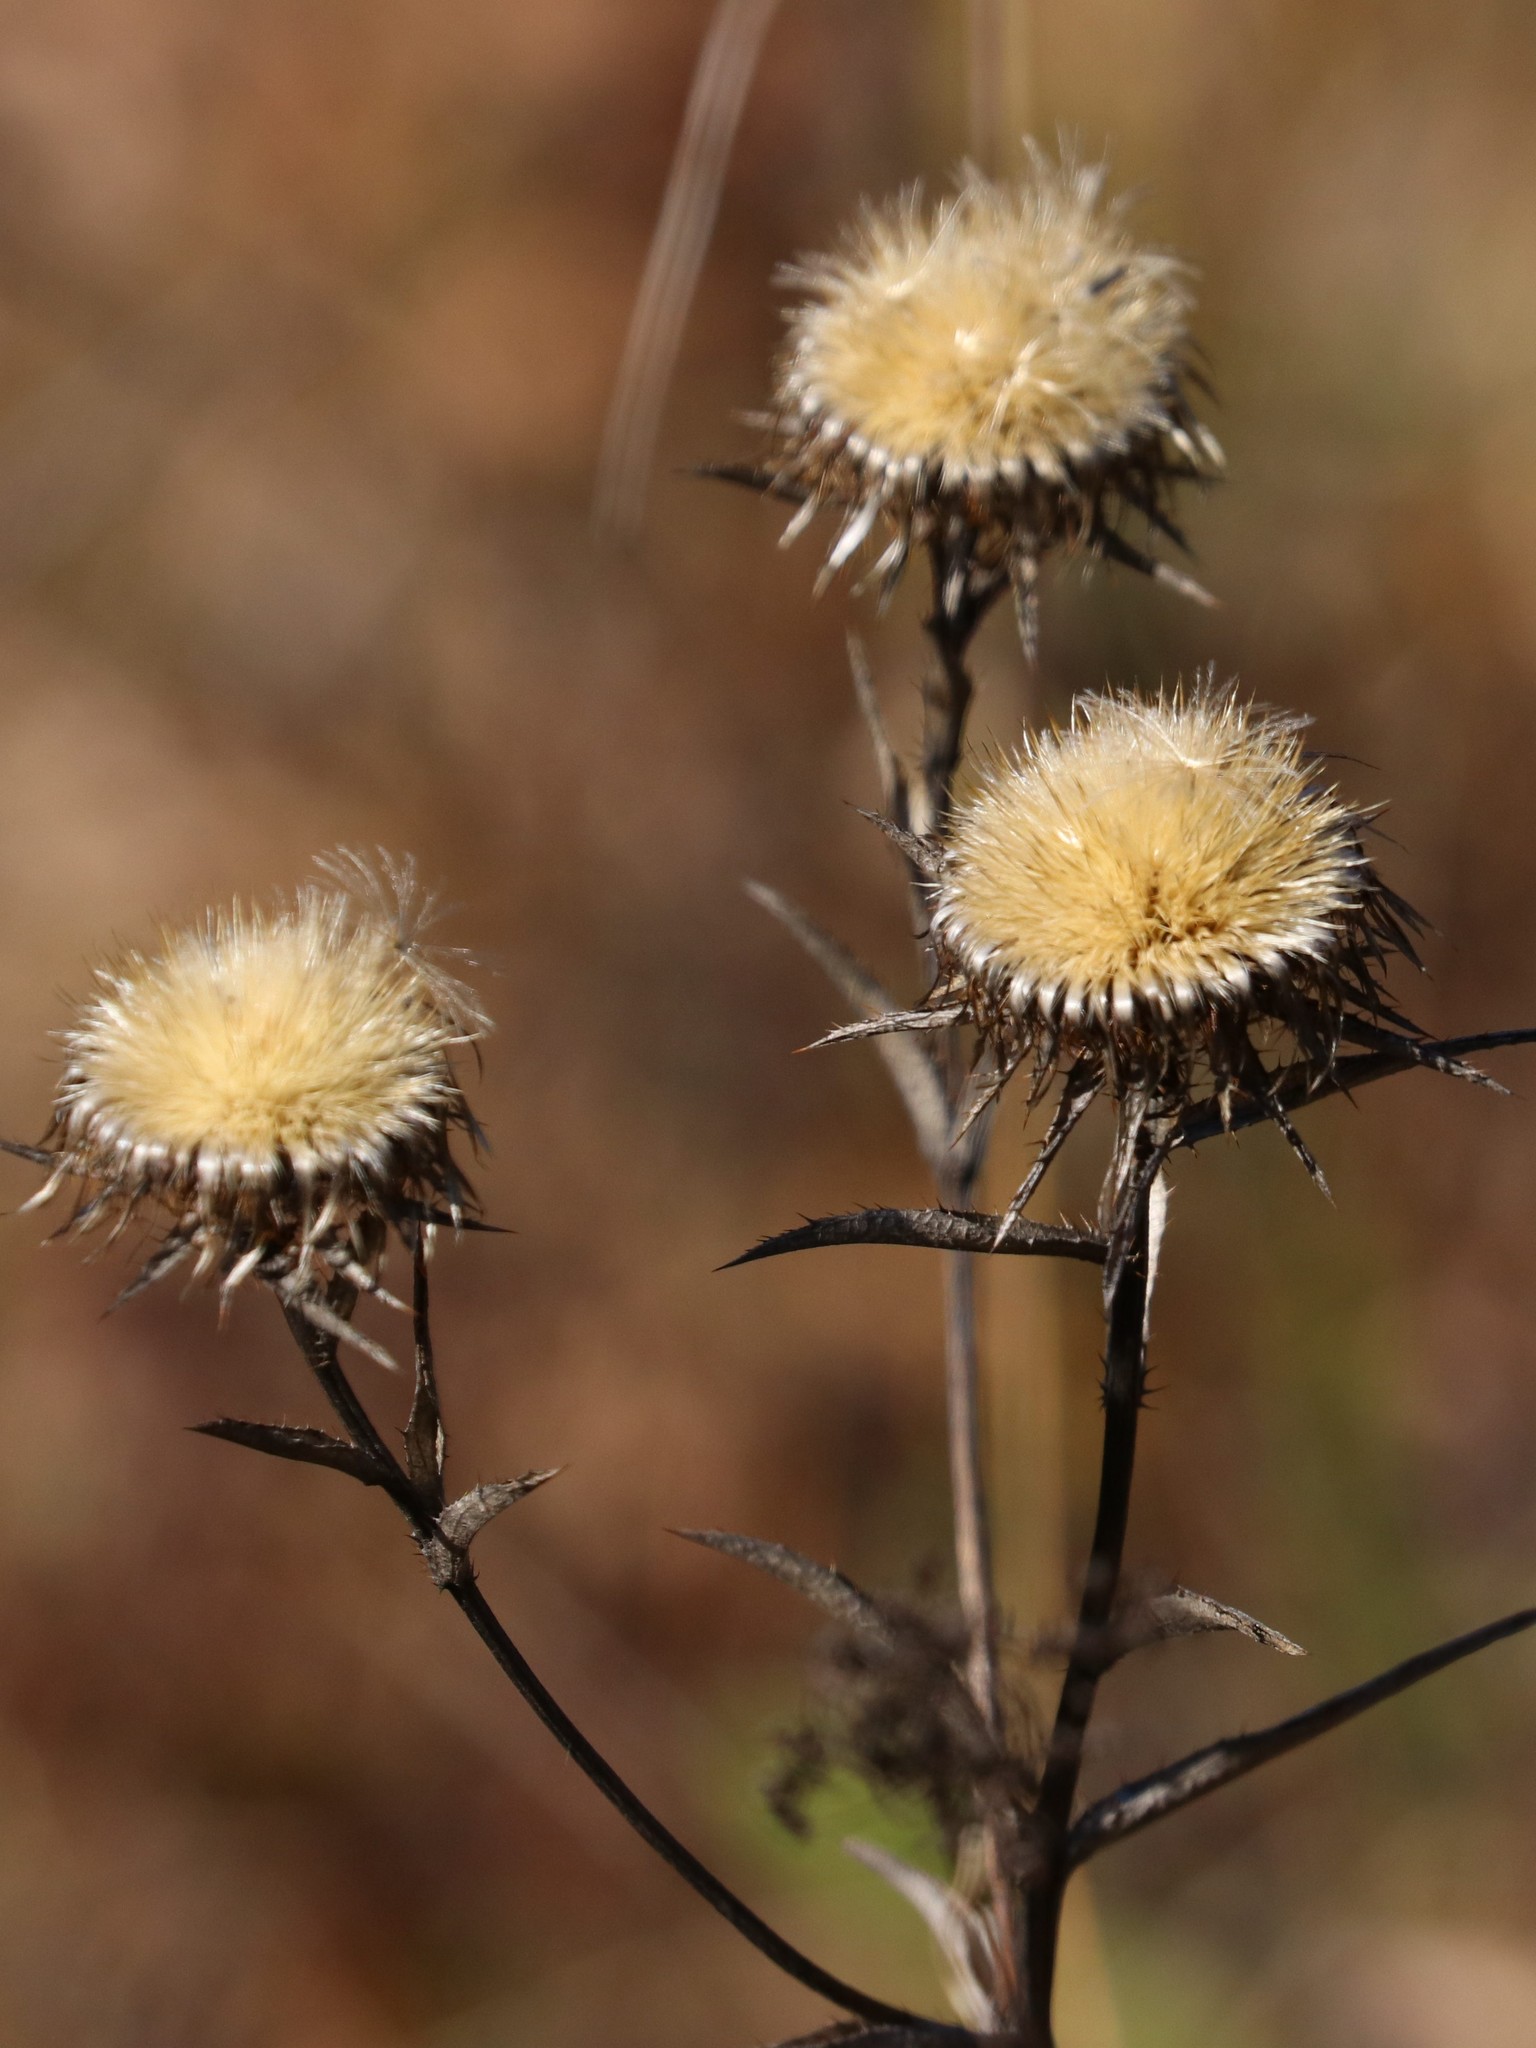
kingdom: Plantae
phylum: Tracheophyta
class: Magnoliopsida
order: Asterales
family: Asteraceae
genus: Carlina
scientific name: Carlina biebersteinii
